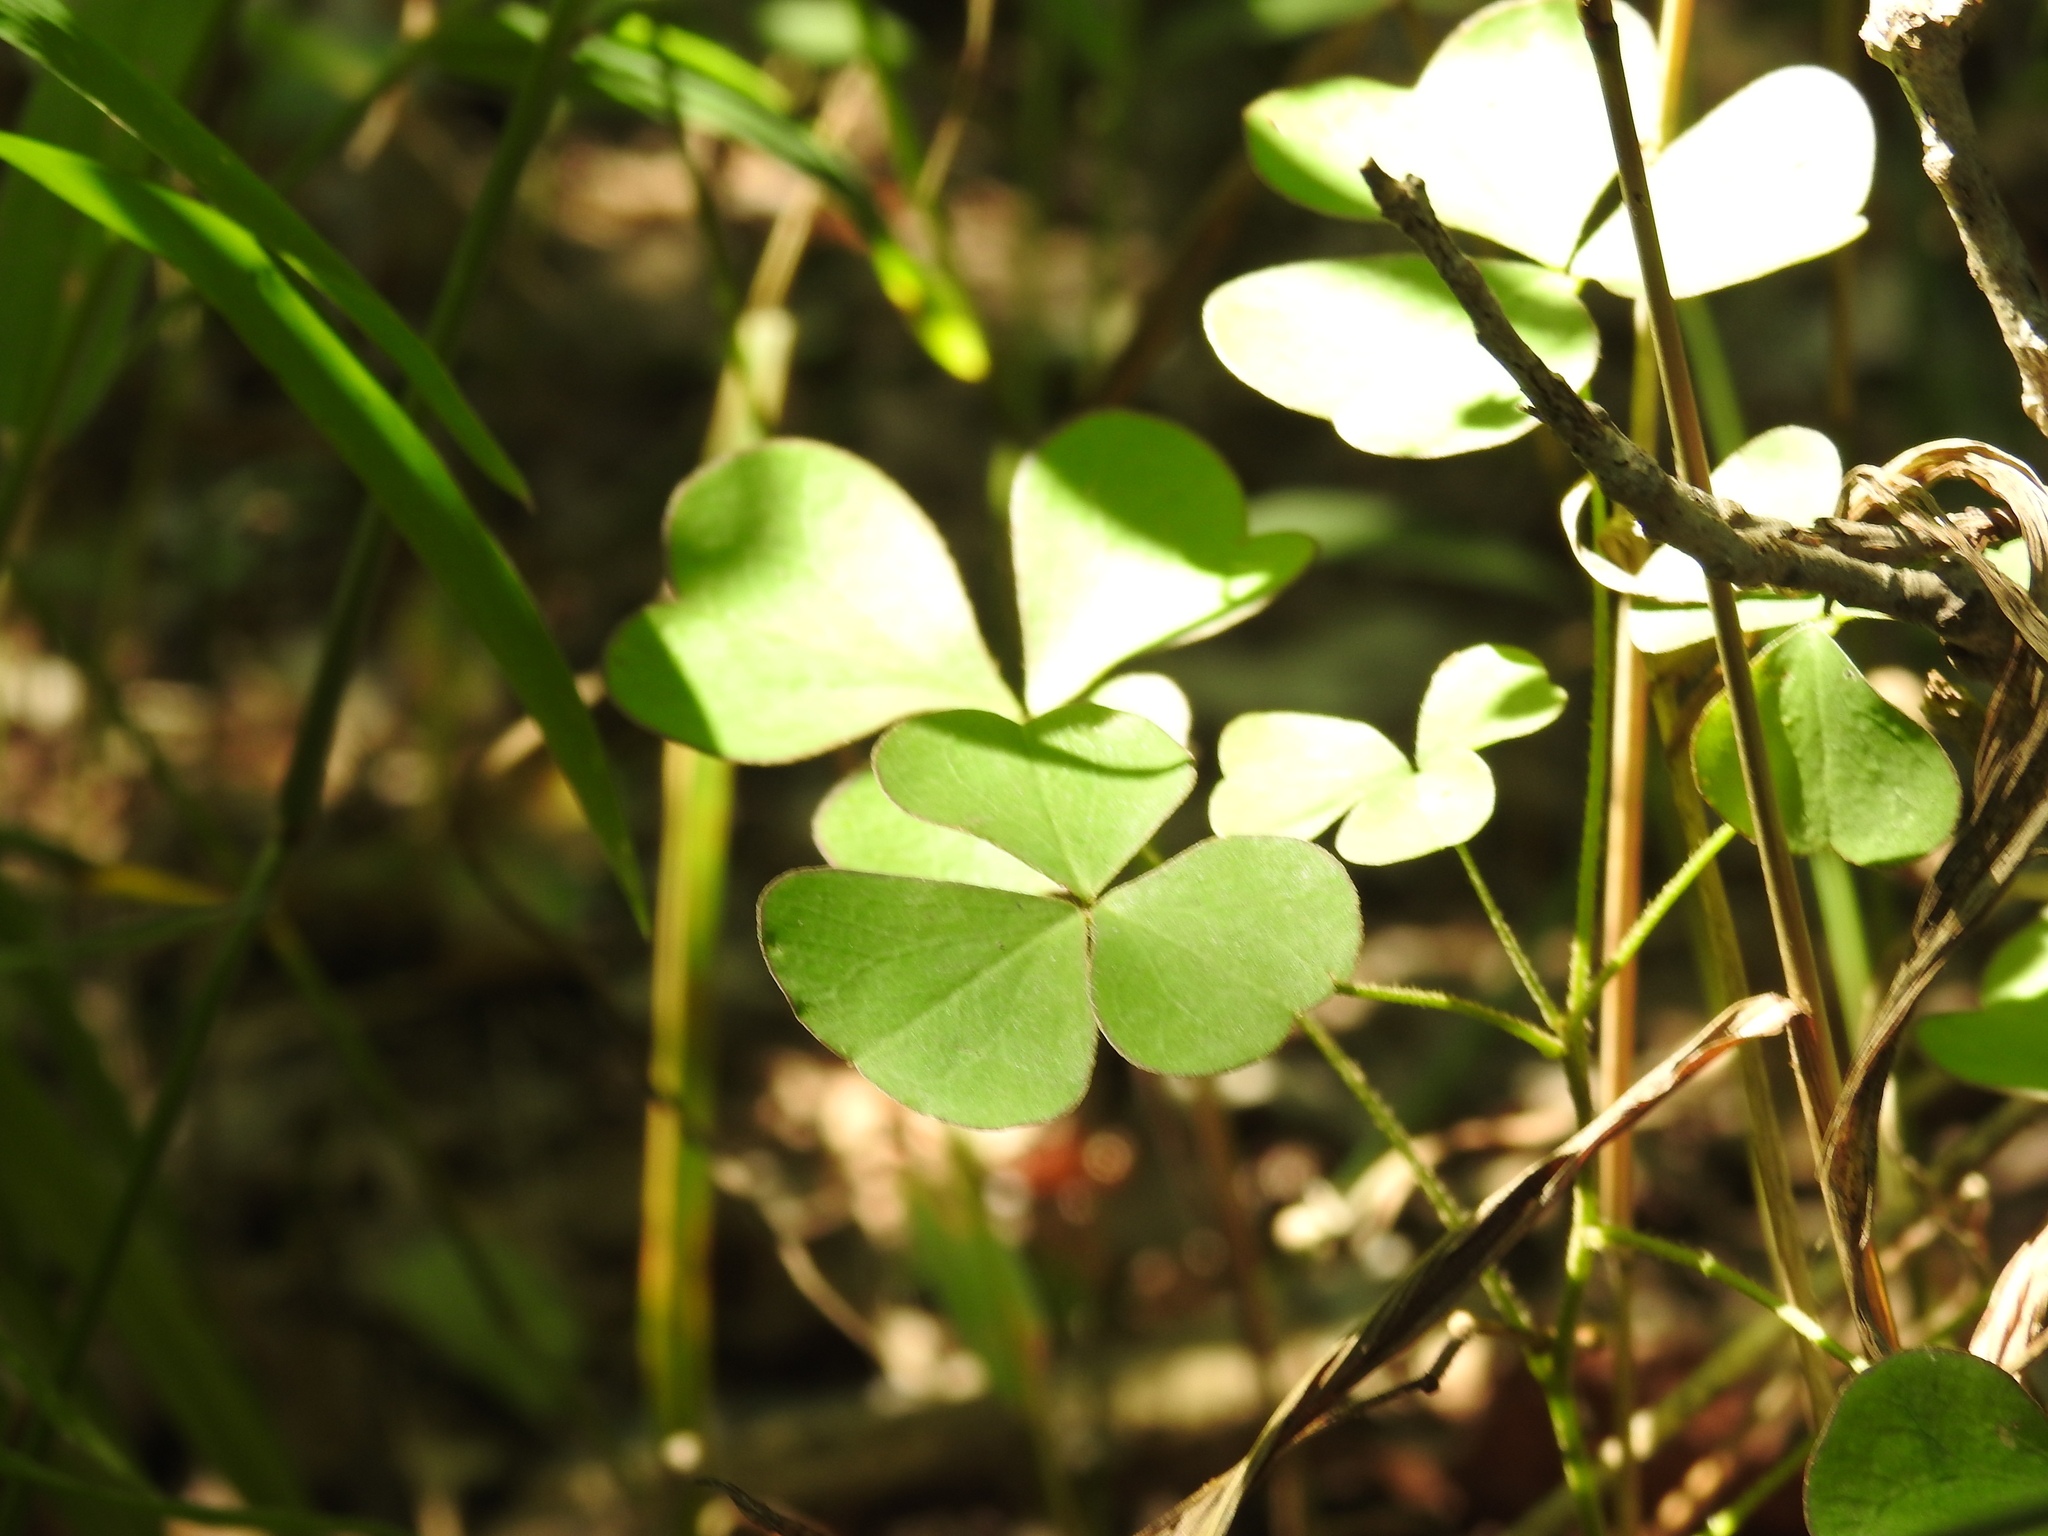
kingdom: Plantae
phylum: Tracheophyta
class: Magnoliopsida
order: Oxalidales
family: Oxalidaceae
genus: Oxalis
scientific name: Oxalis grandis
